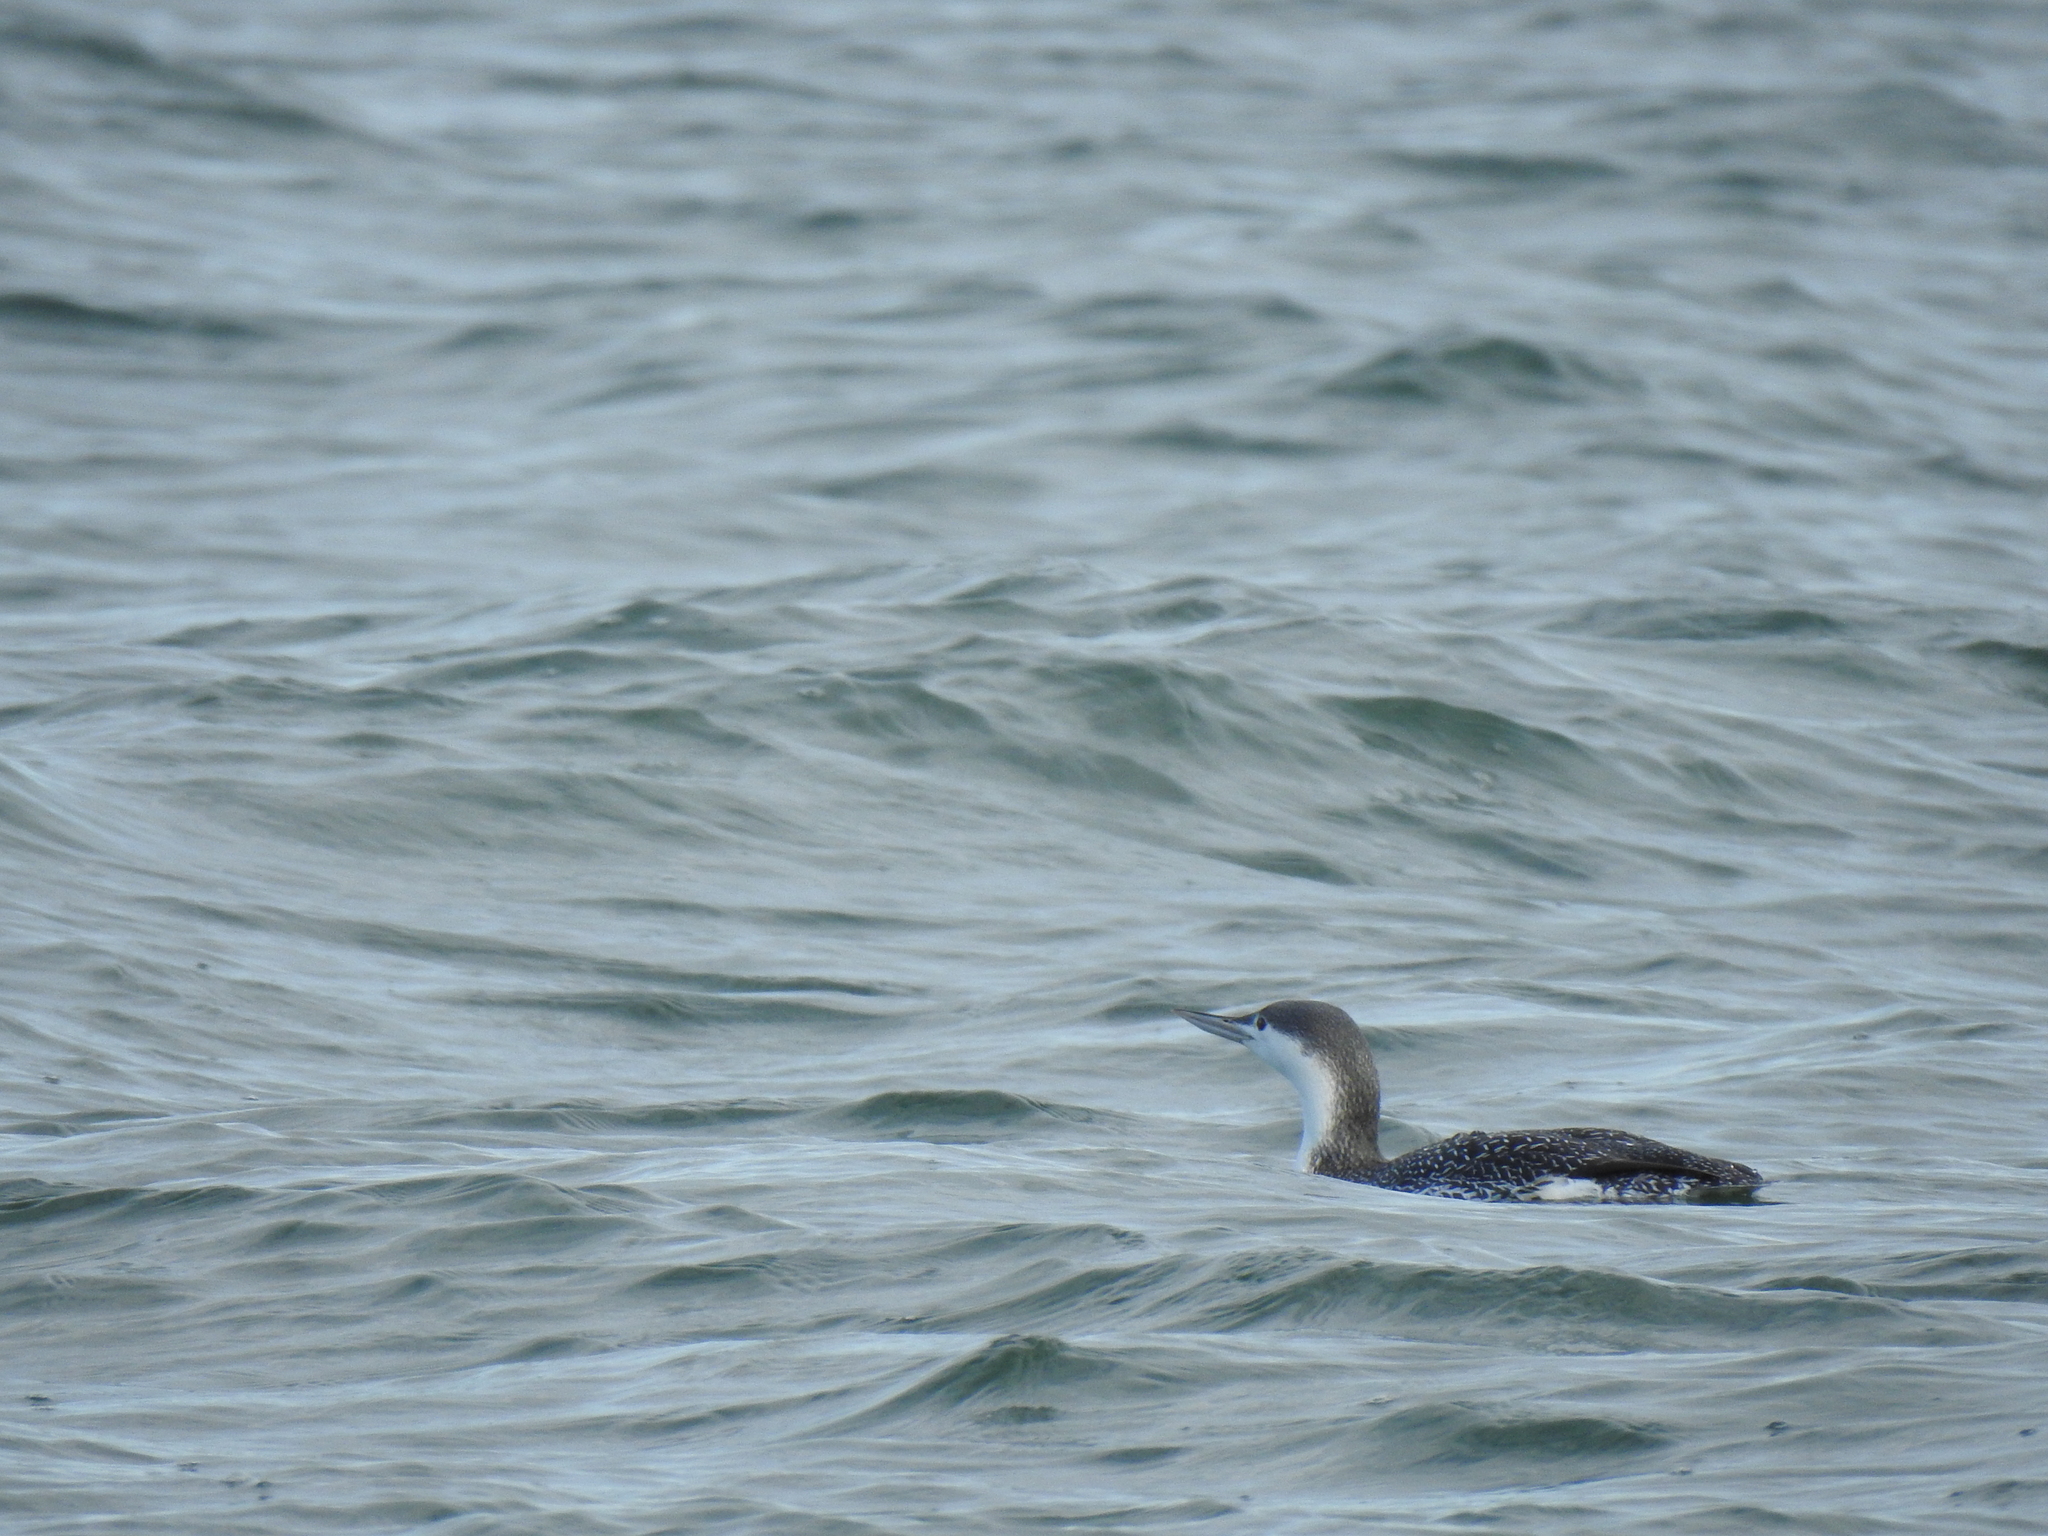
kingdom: Animalia
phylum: Chordata
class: Aves
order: Gaviiformes
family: Gaviidae
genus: Gavia
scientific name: Gavia stellata
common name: Red-throated loon
